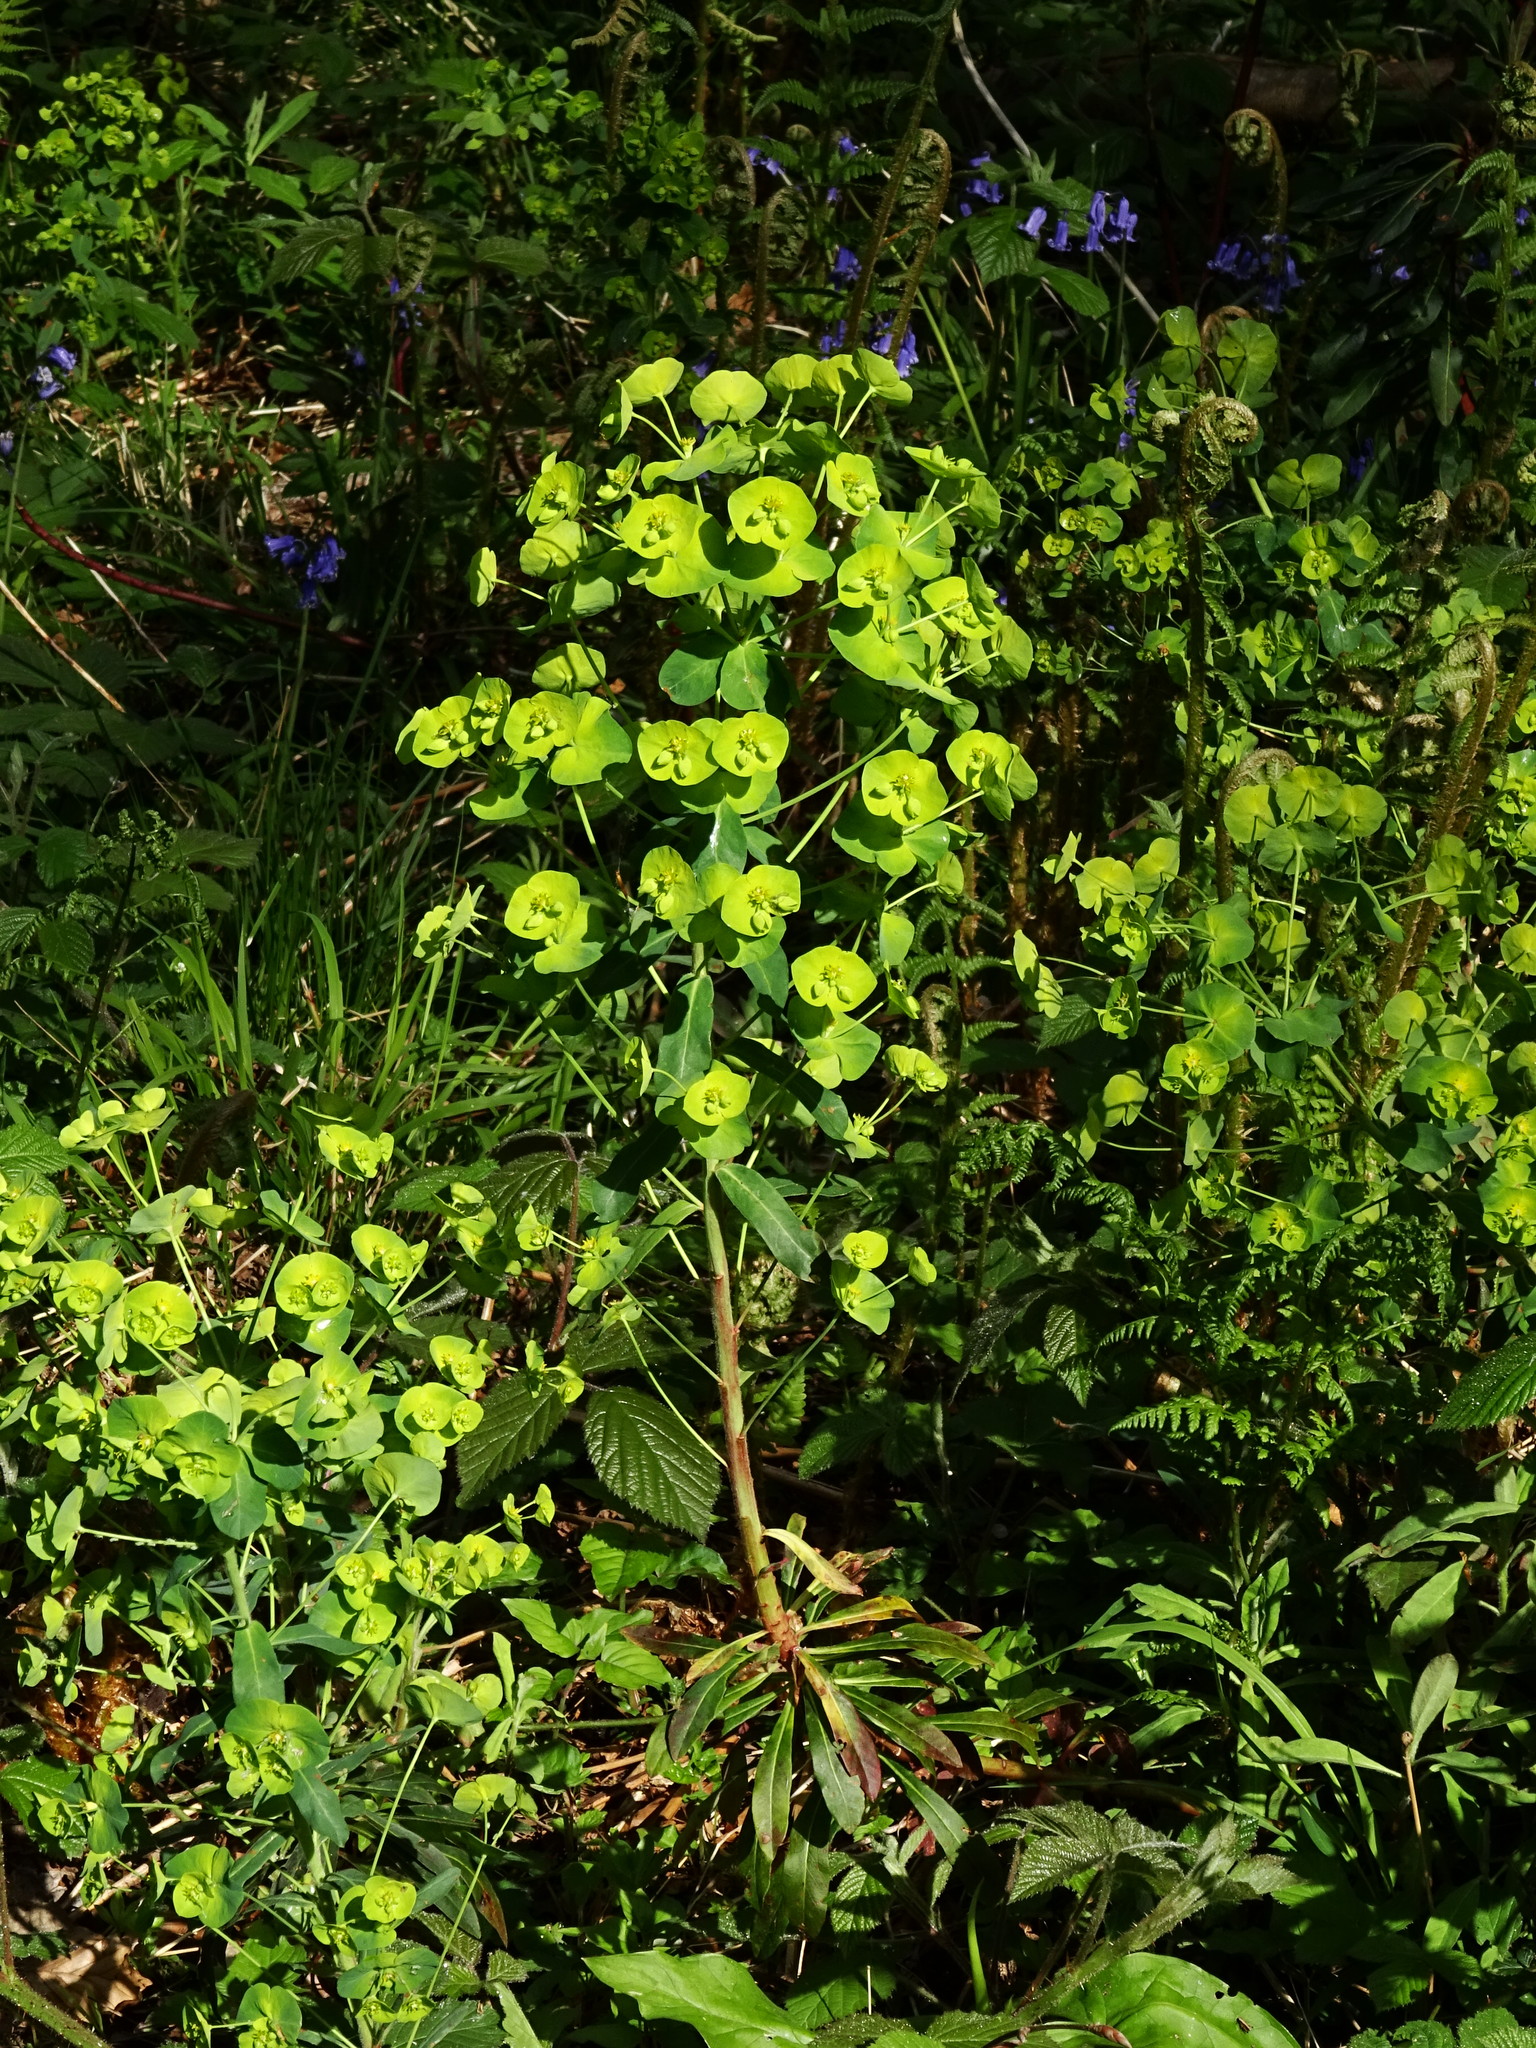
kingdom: Plantae
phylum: Tracheophyta
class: Magnoliopsida
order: Malpighiales
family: Euphorbiaceae
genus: Euphorbia
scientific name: Euphorbia amygdaloides
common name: Wood spurge
